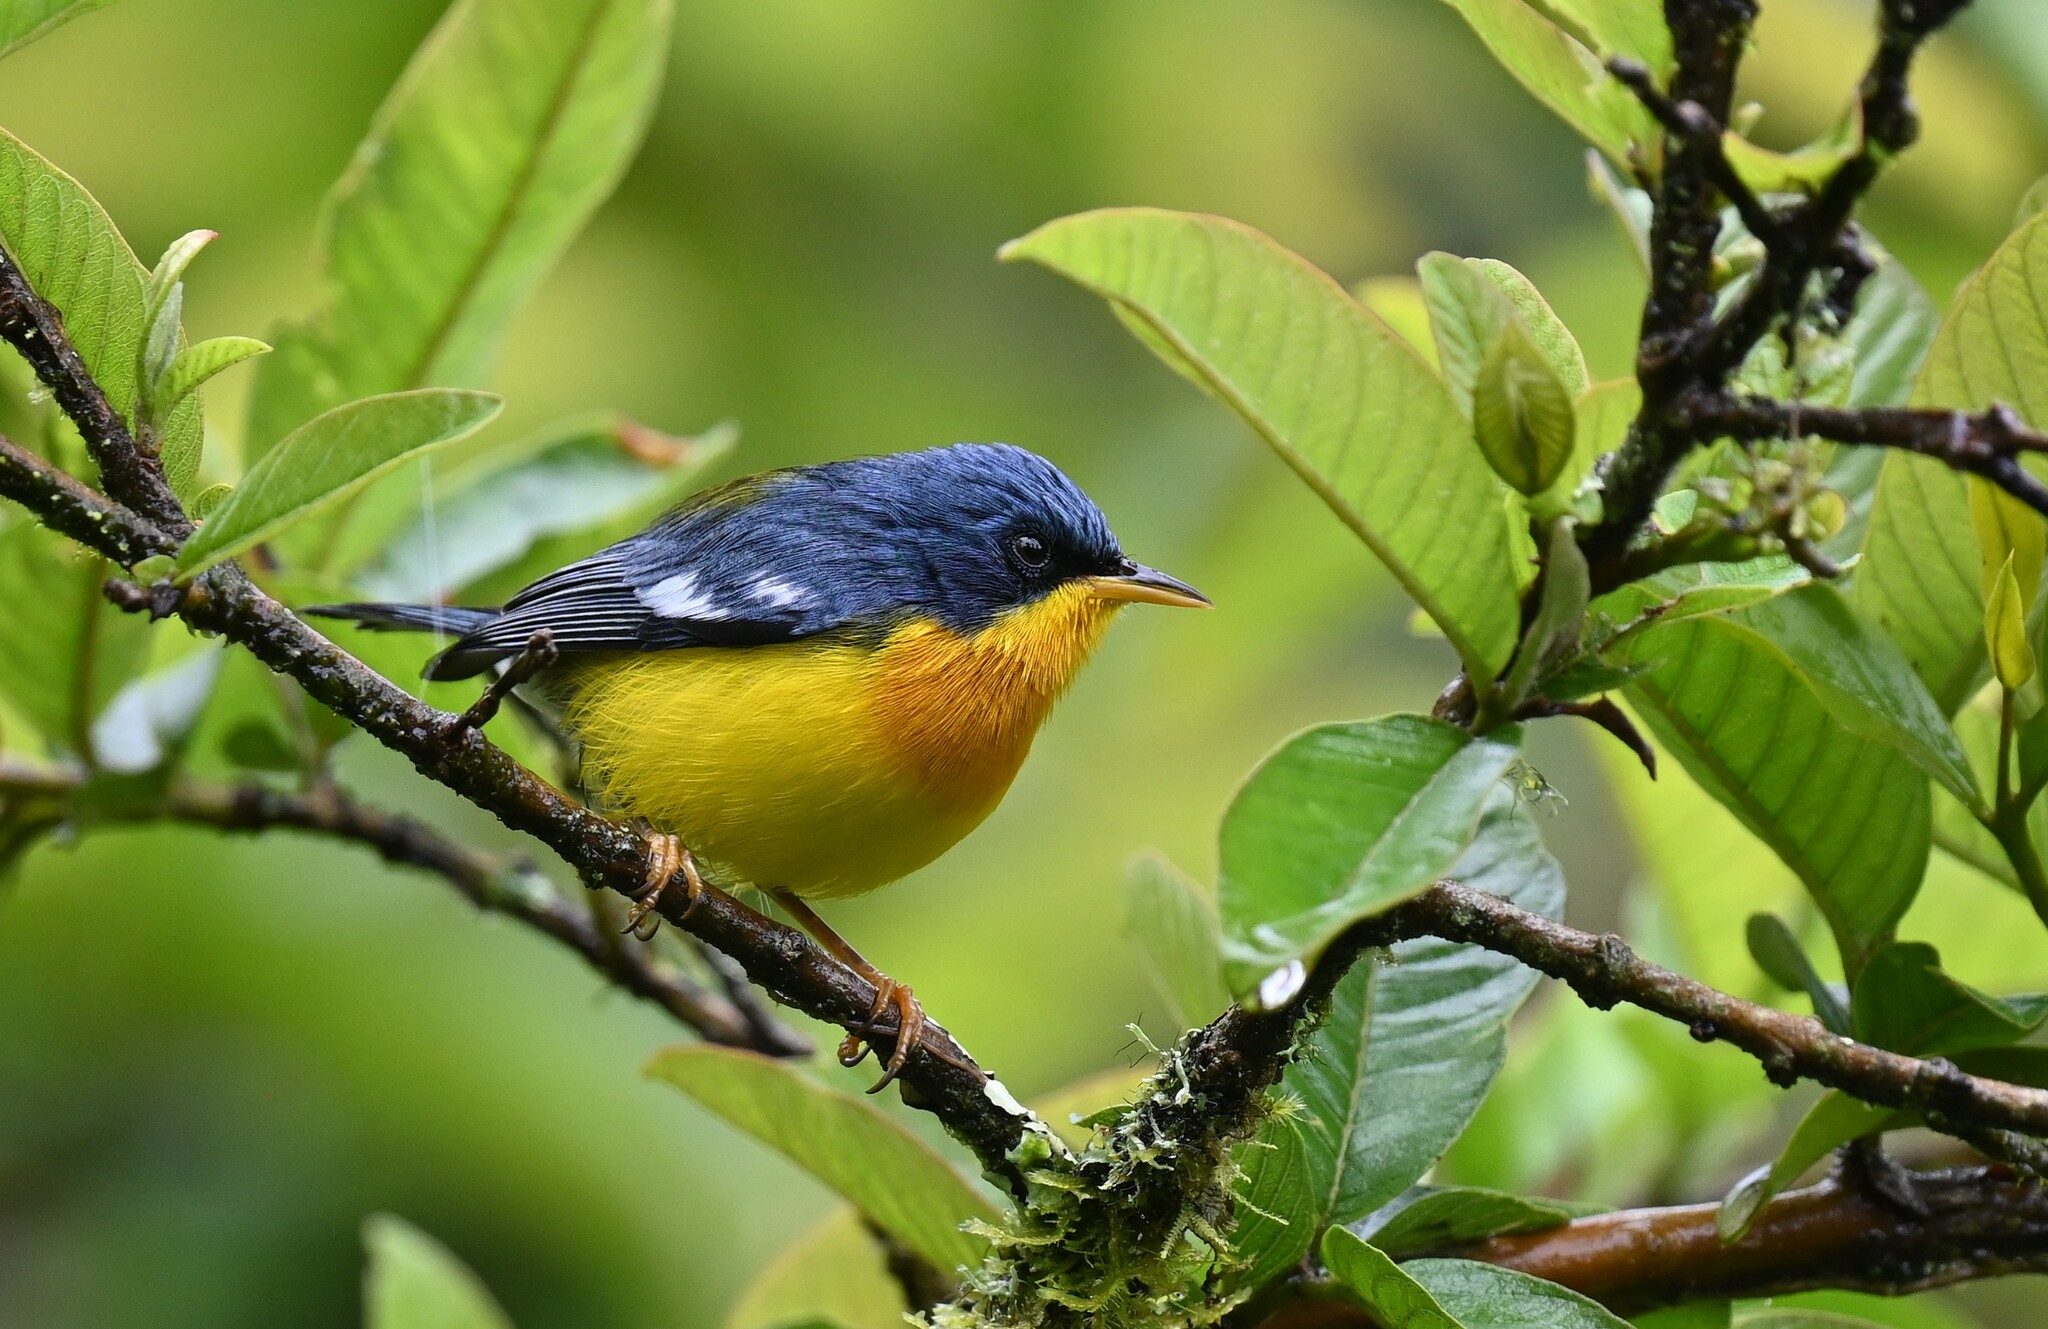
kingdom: Animalia
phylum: Chordata
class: Aves
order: Passeriformes
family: Parulidae
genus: Setophaga
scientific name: Setophaga pitiayumi
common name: Tropical parula
